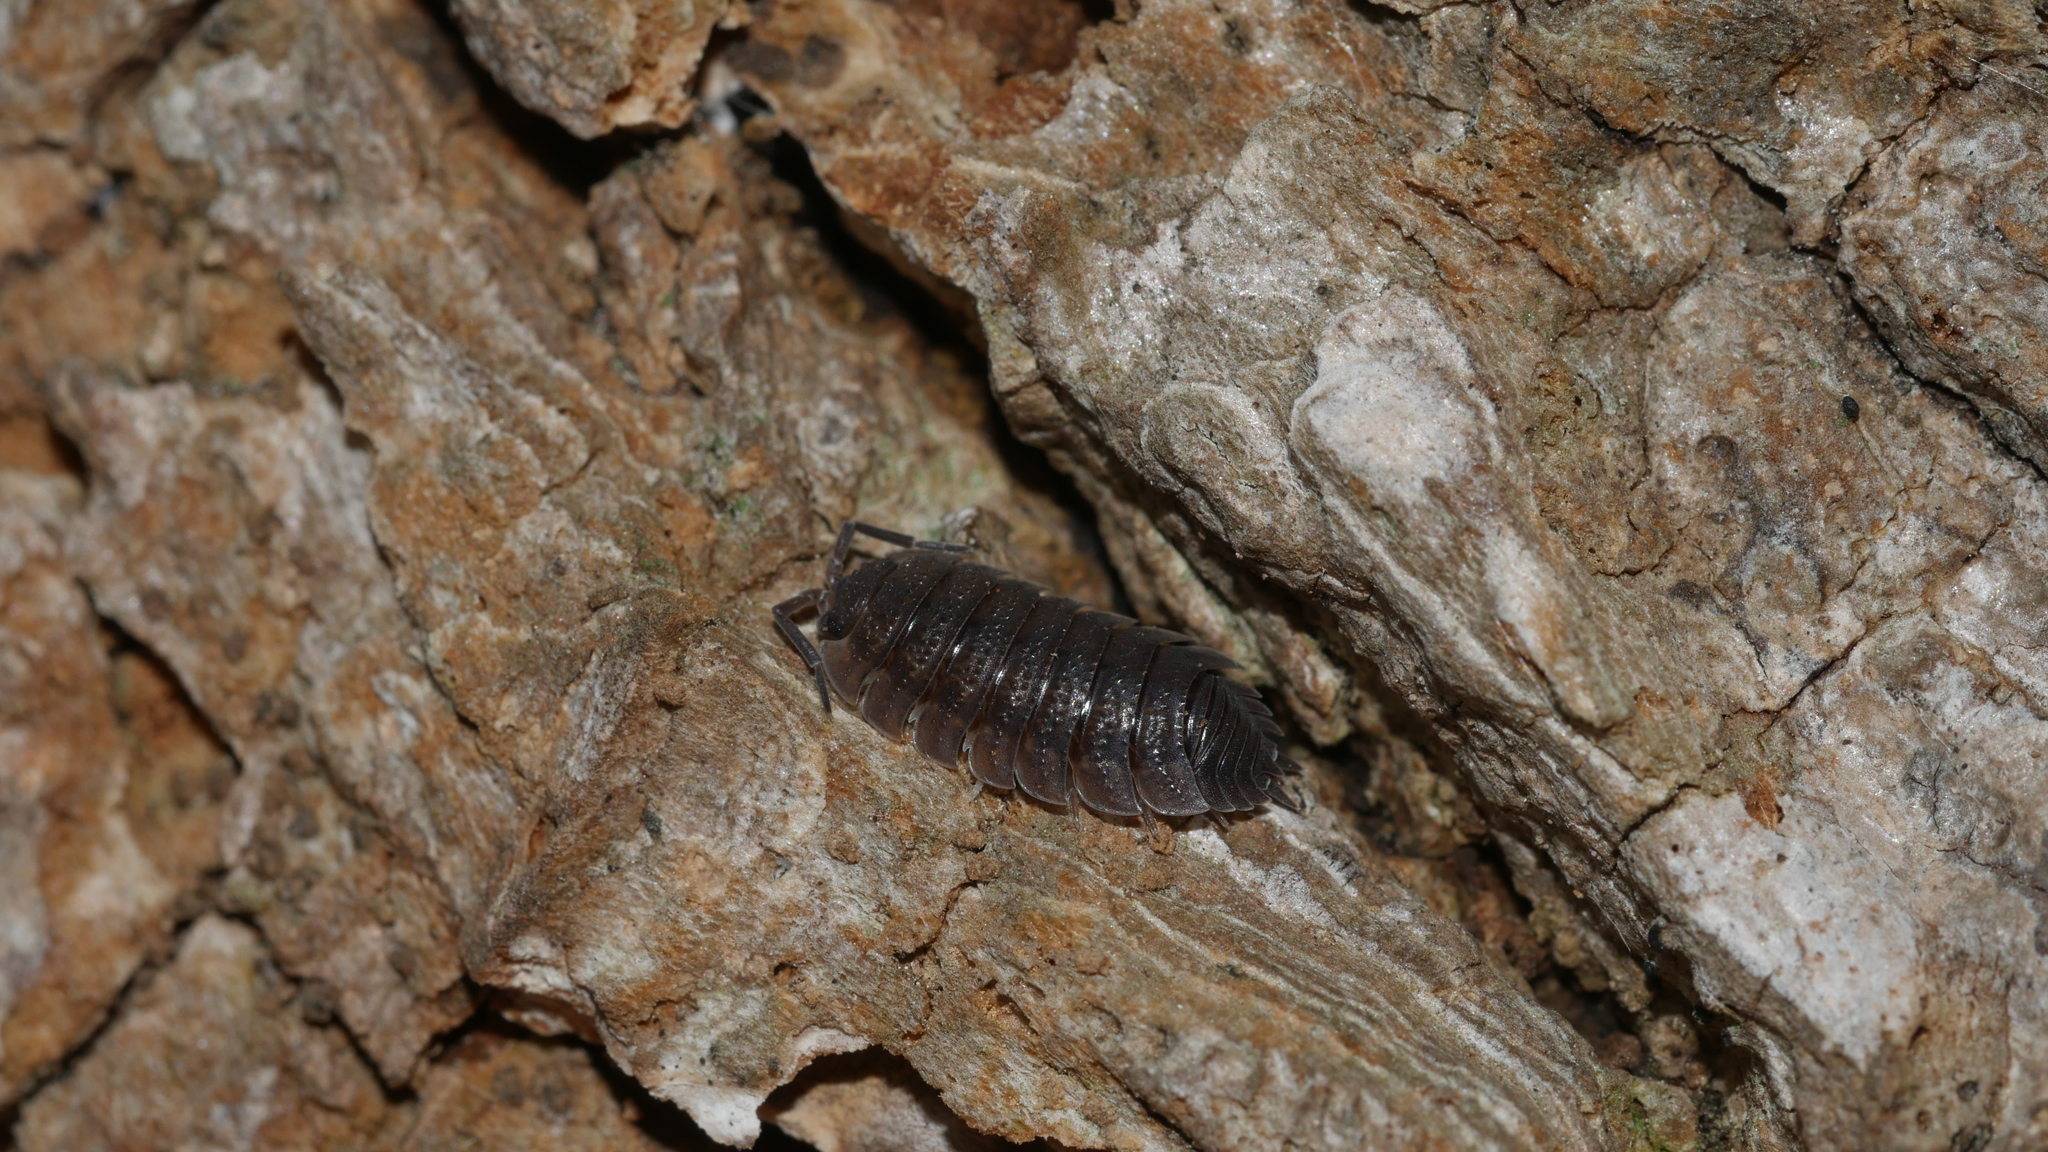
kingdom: Animalia
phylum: Arthropoda
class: Malacostraca
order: Isopoda
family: Porcellionidae
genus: Porcellio
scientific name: Porcellio scaber
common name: Common rough woodlouse
